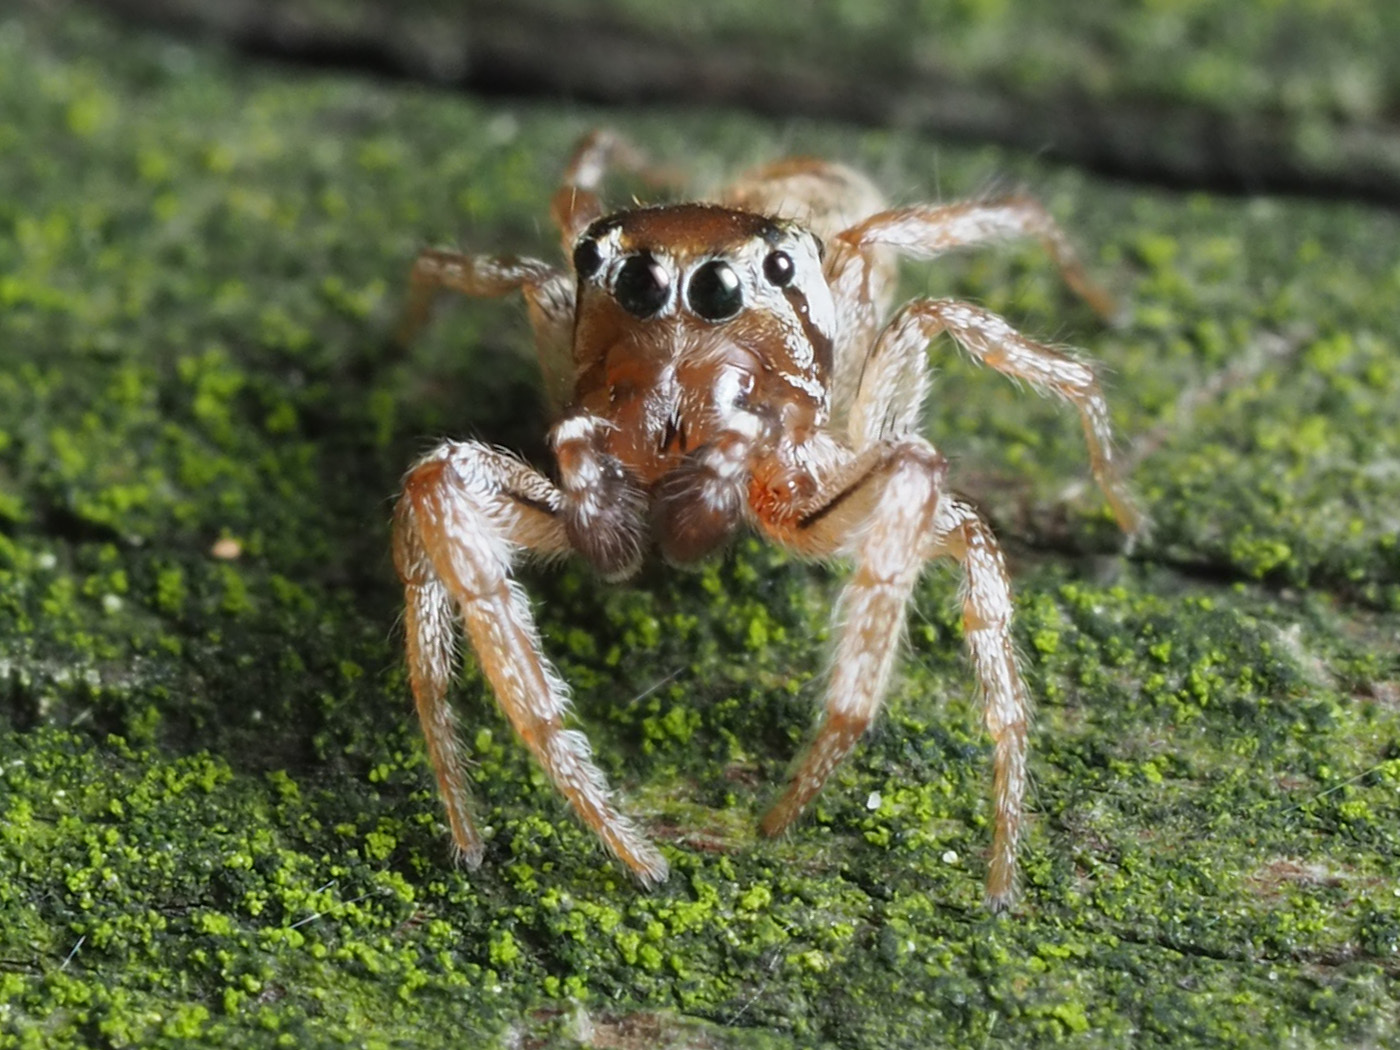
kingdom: Animalia
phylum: Arthropoda
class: Arachnida
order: Araneae
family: Salticidae
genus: Pelegrina
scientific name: Pelegrina flaviceps
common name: Big-headed white-cheeked jumping spider
